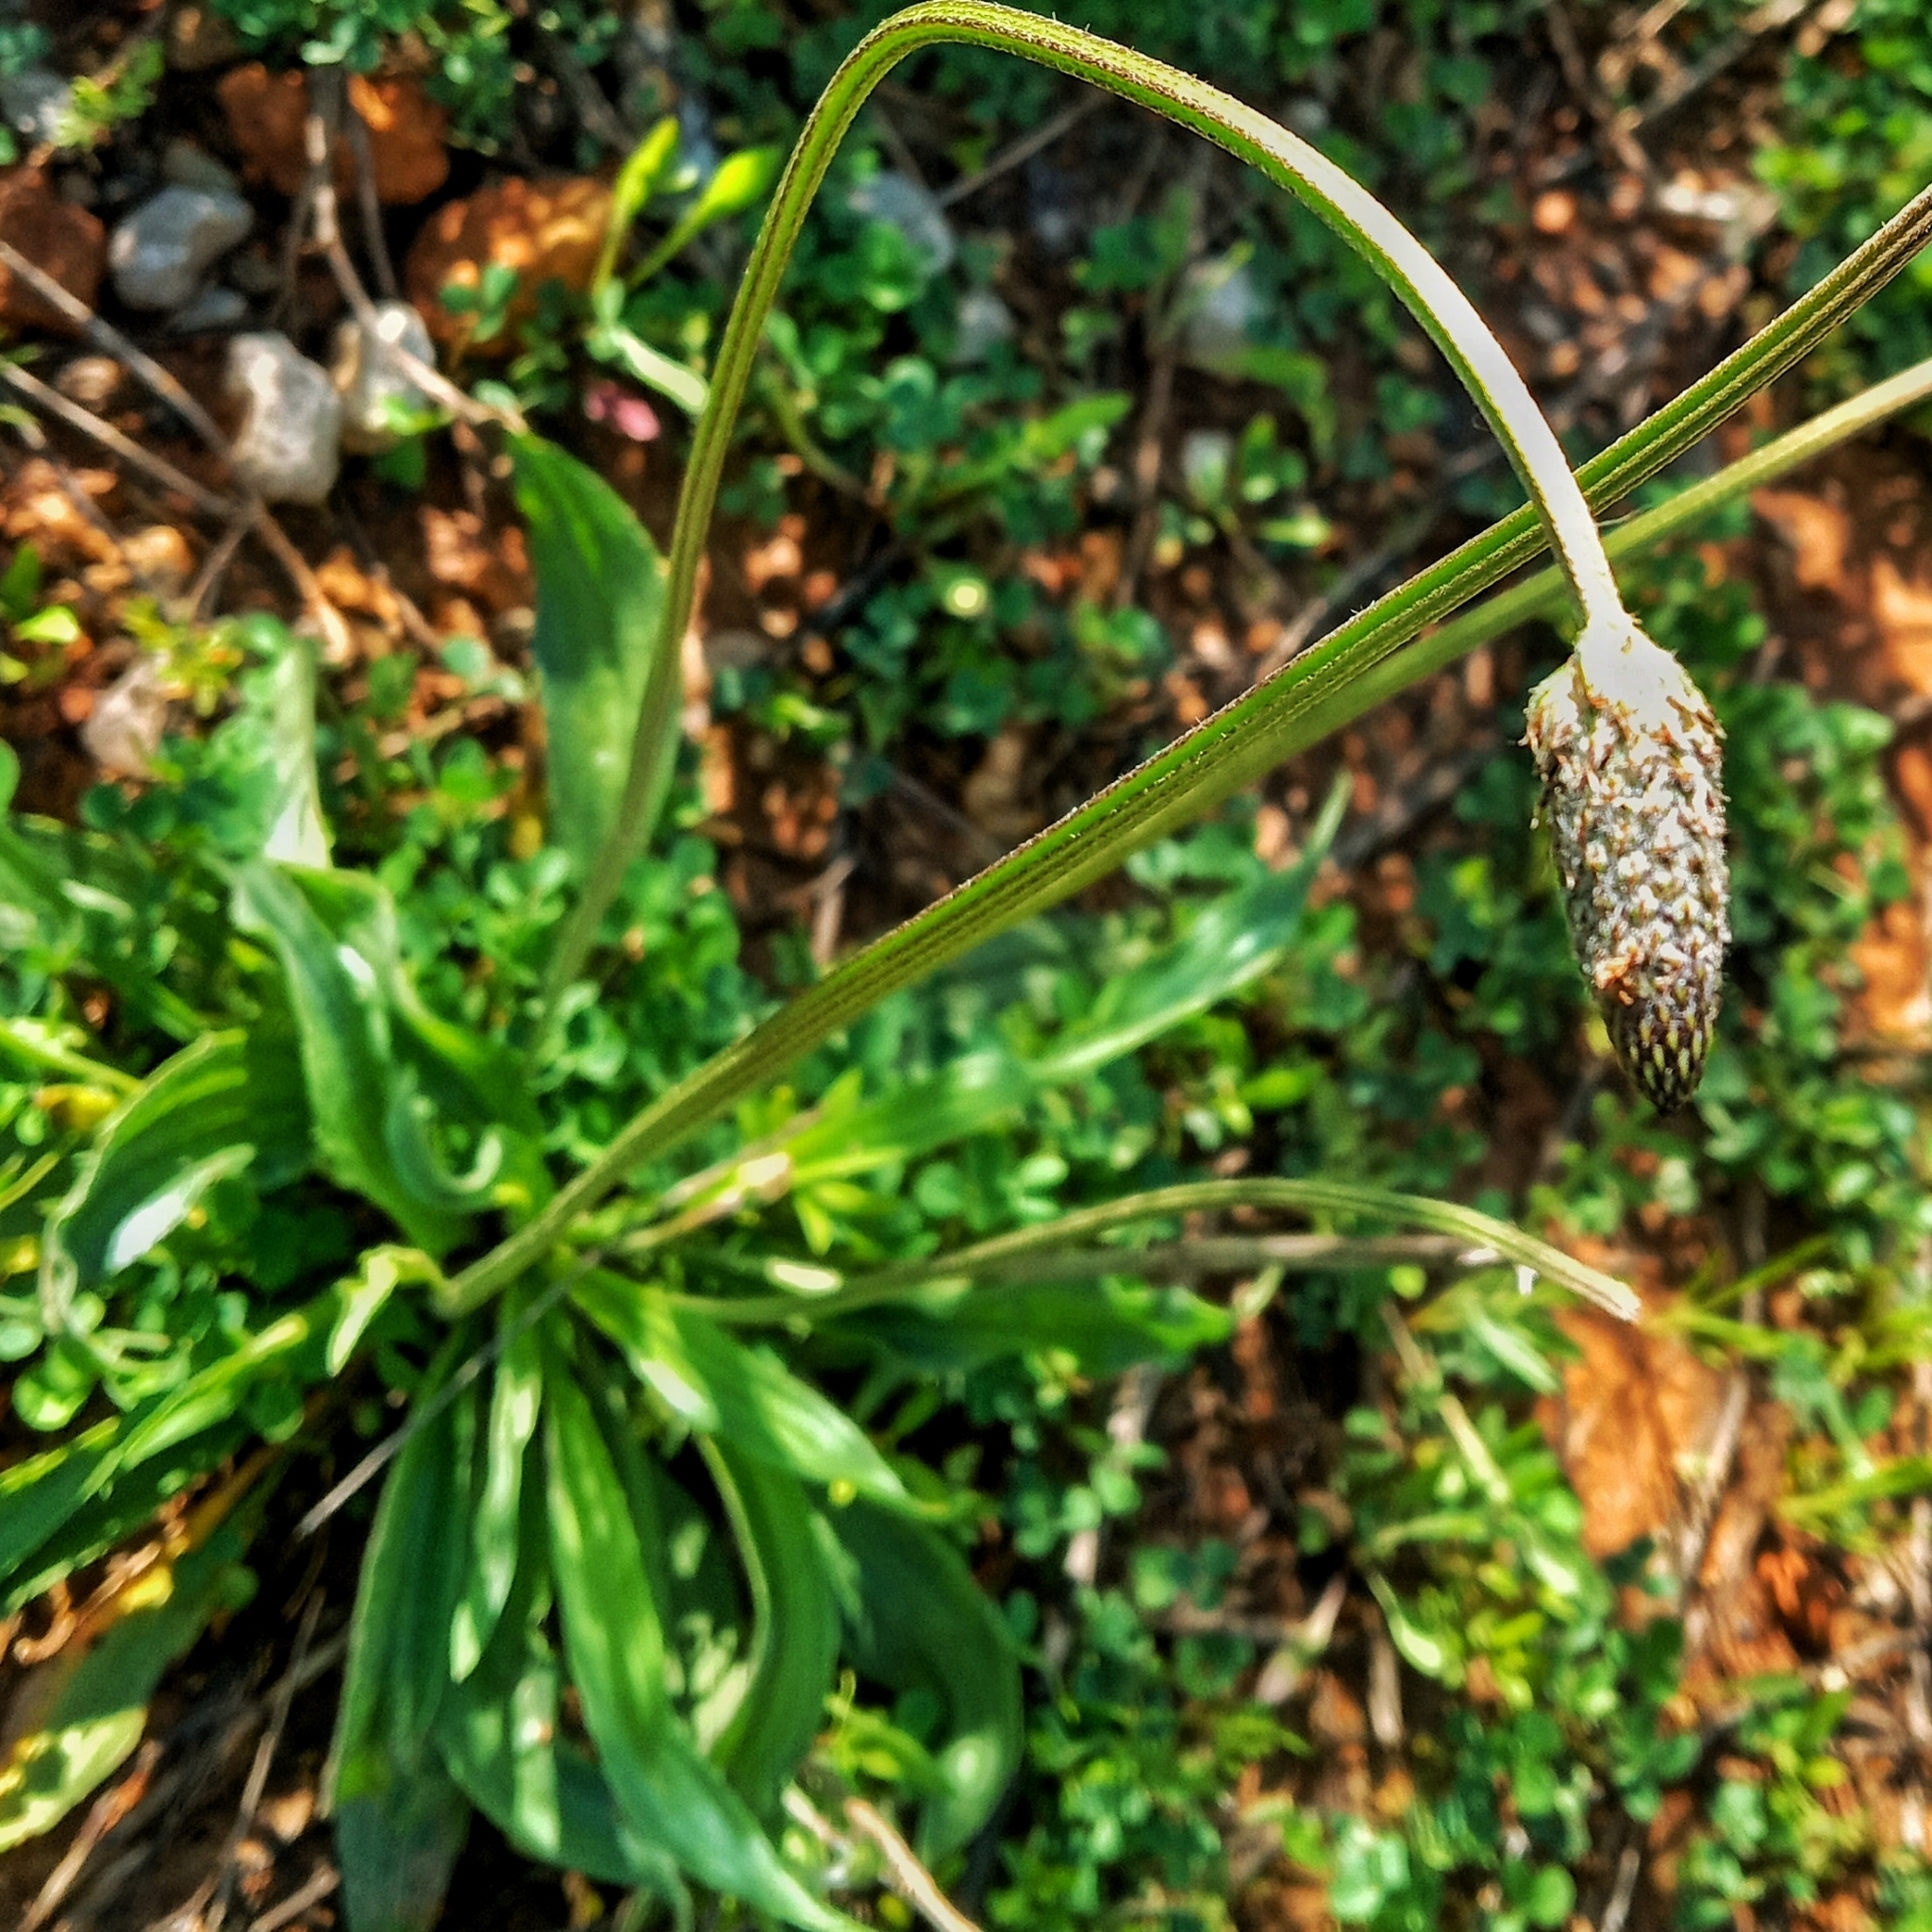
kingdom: Plantae
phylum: Tracheophyta
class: Magnoliopsida
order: Lamiales
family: Plantaginaceae
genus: Plantago
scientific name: Plantago lanceolata
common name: Ribwort plantain
